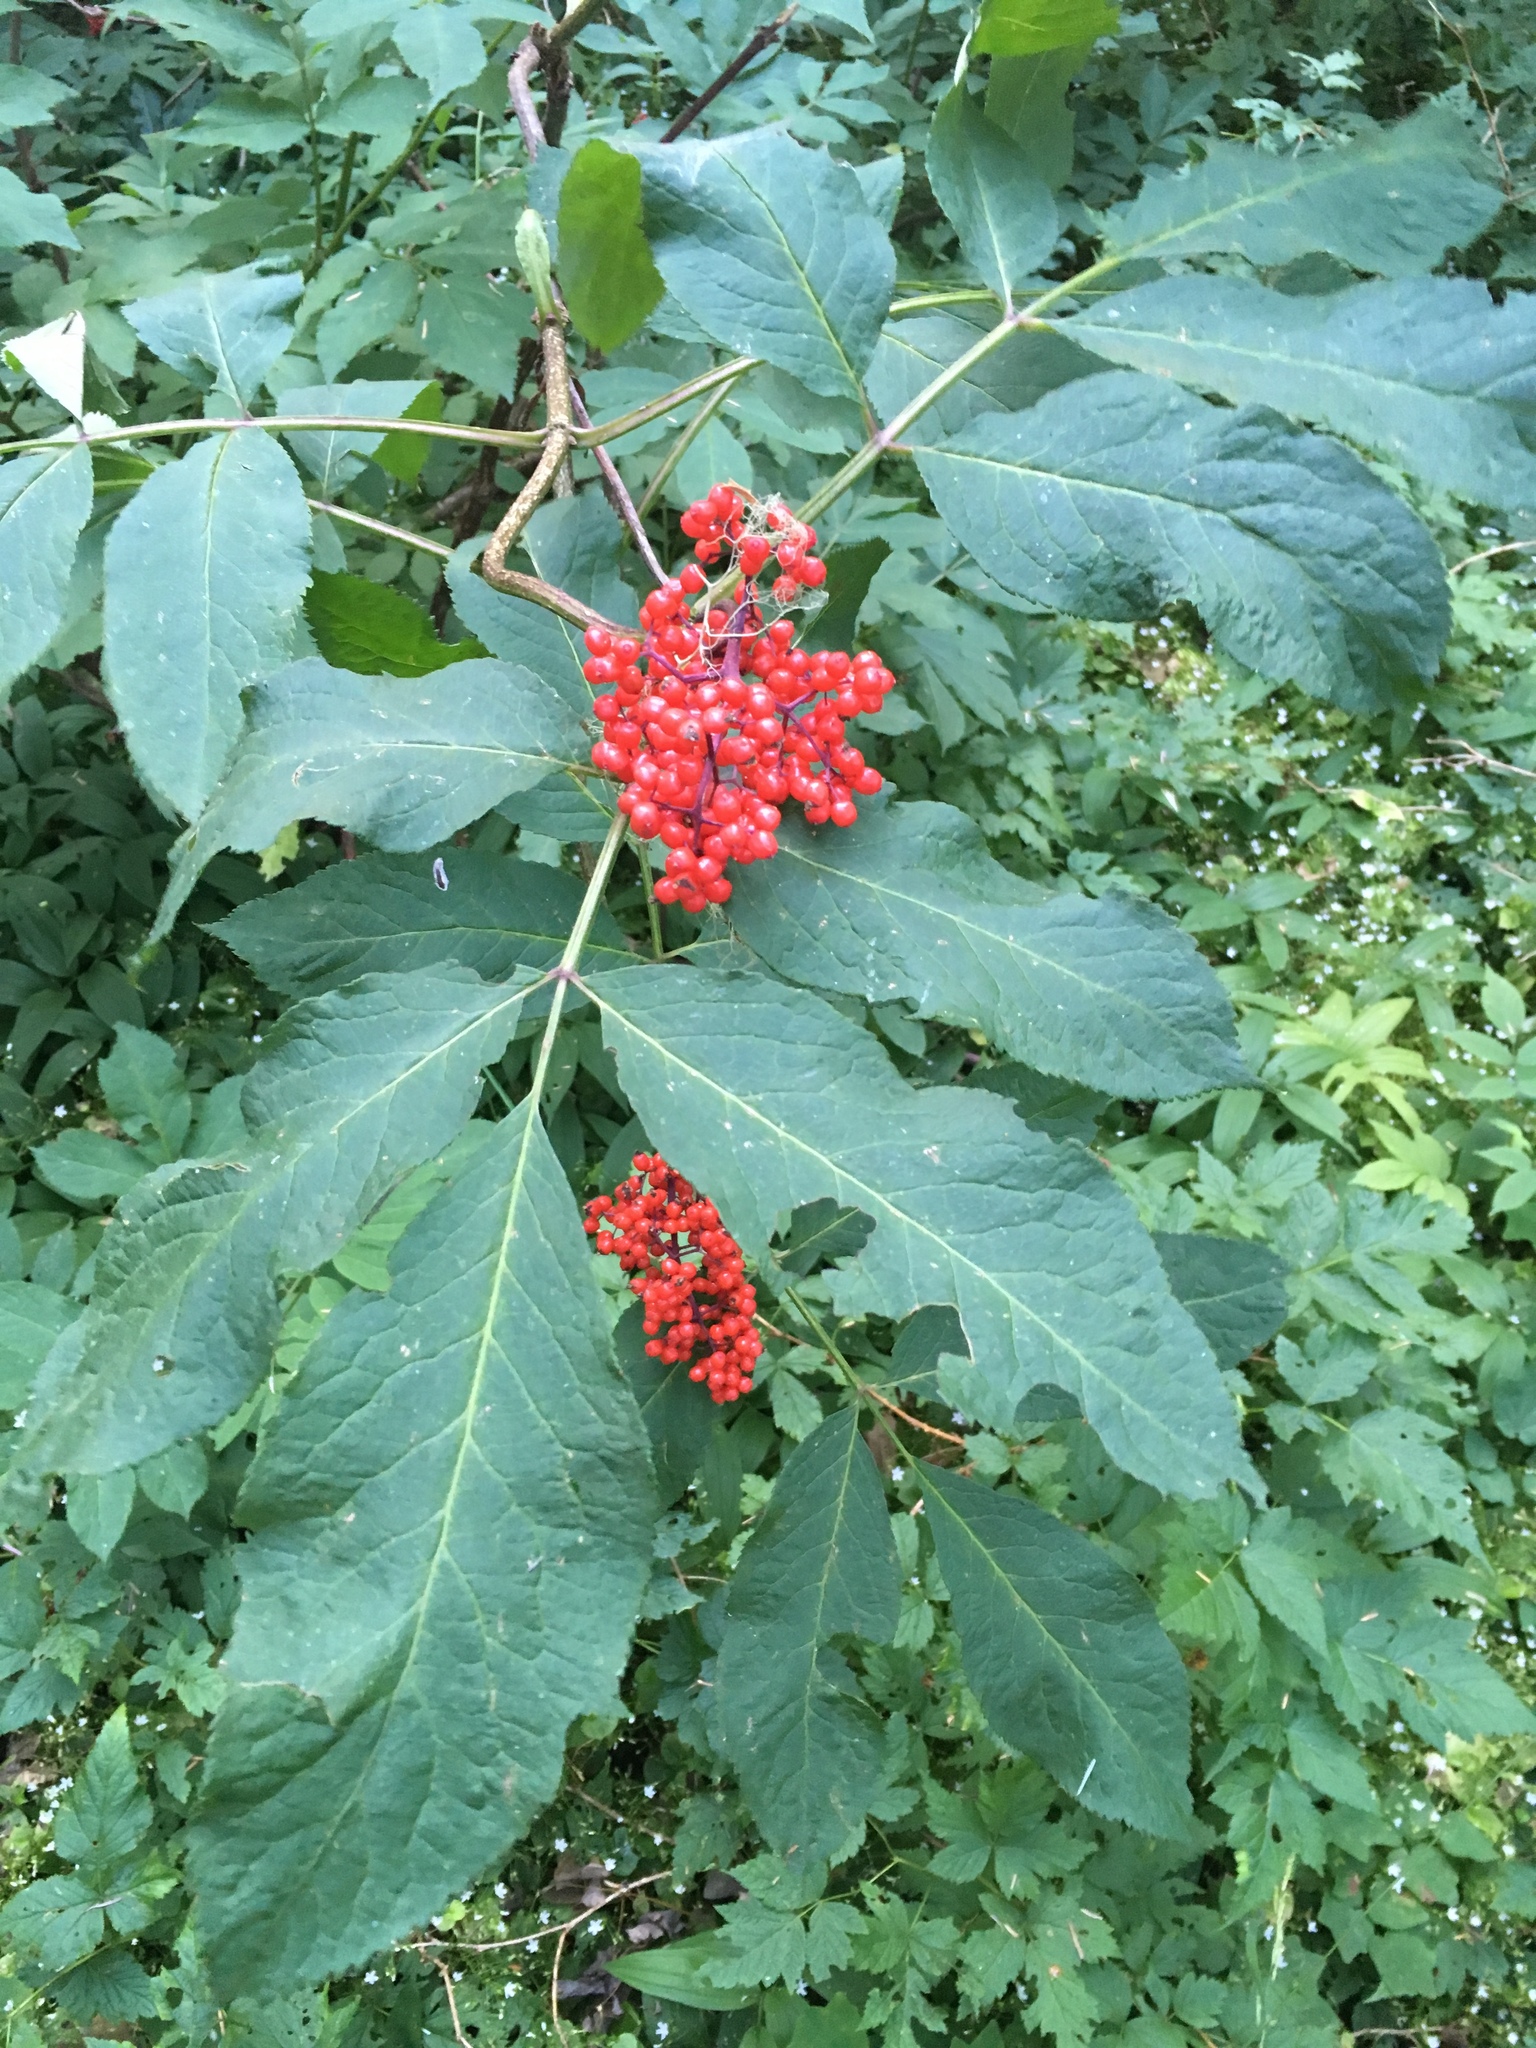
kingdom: Plantae
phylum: Tracheophyta
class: Magnoliopsida
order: Dipsacales
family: Viburnaceae
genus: Sambucus
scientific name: Sambucus racemosa
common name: Red-berried elder
